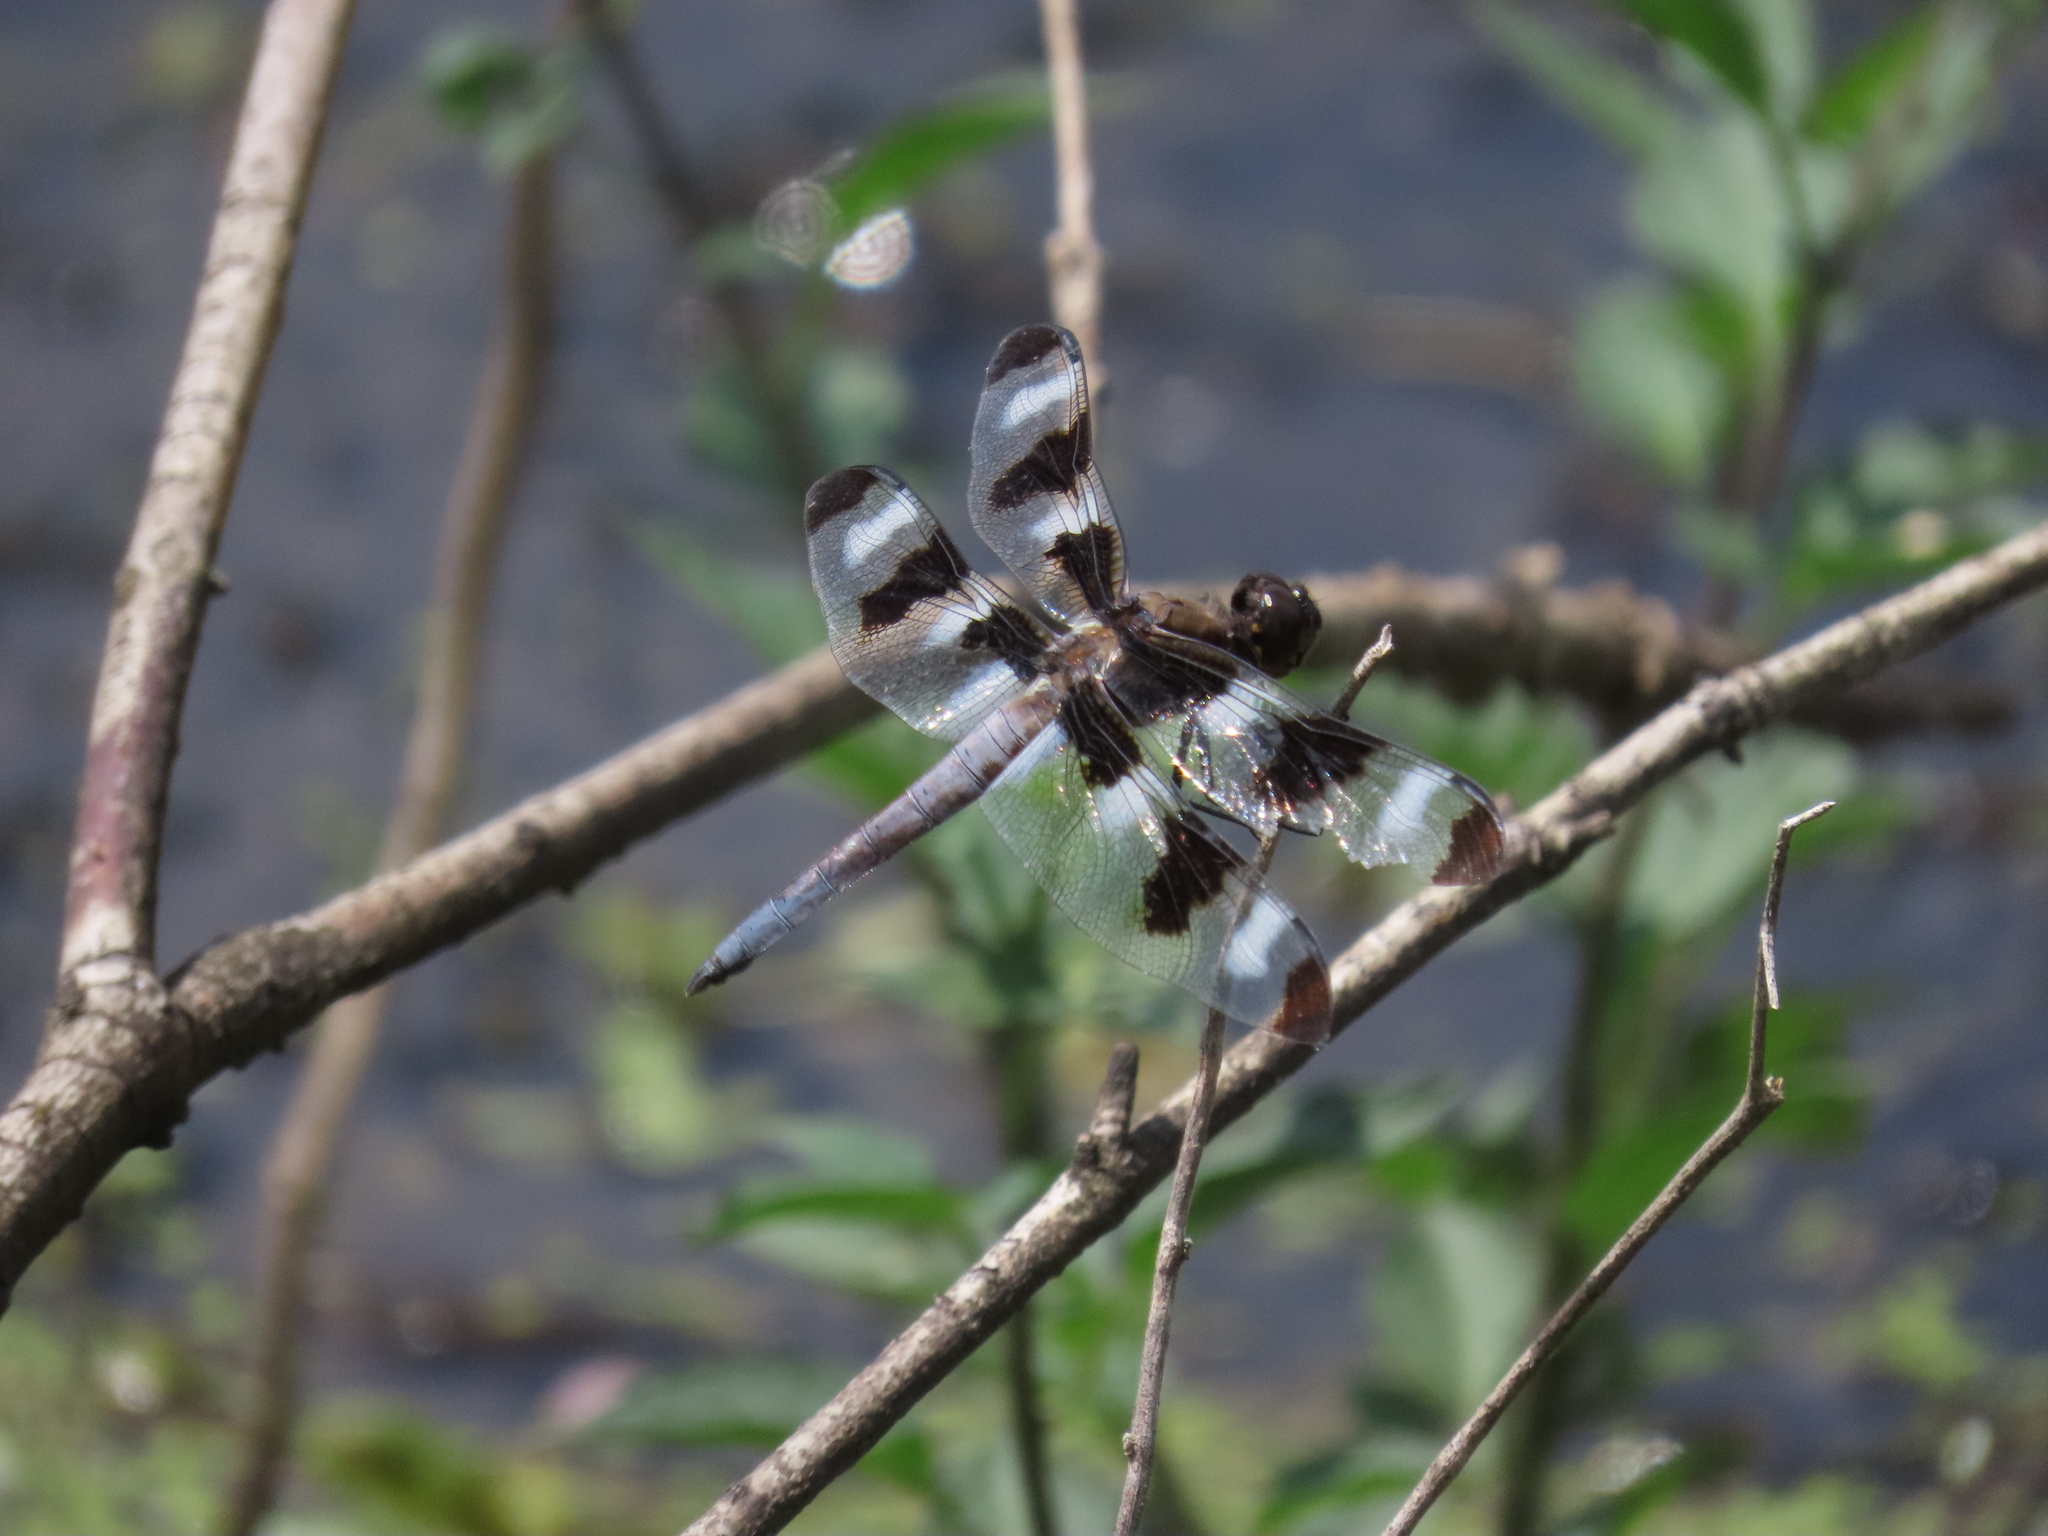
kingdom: Animalia
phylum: Arthropoda
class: Insecta
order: Odonata
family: Libellulidae
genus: Libellula
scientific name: Libellula pulchella
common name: Twelve-spotted skimmer
